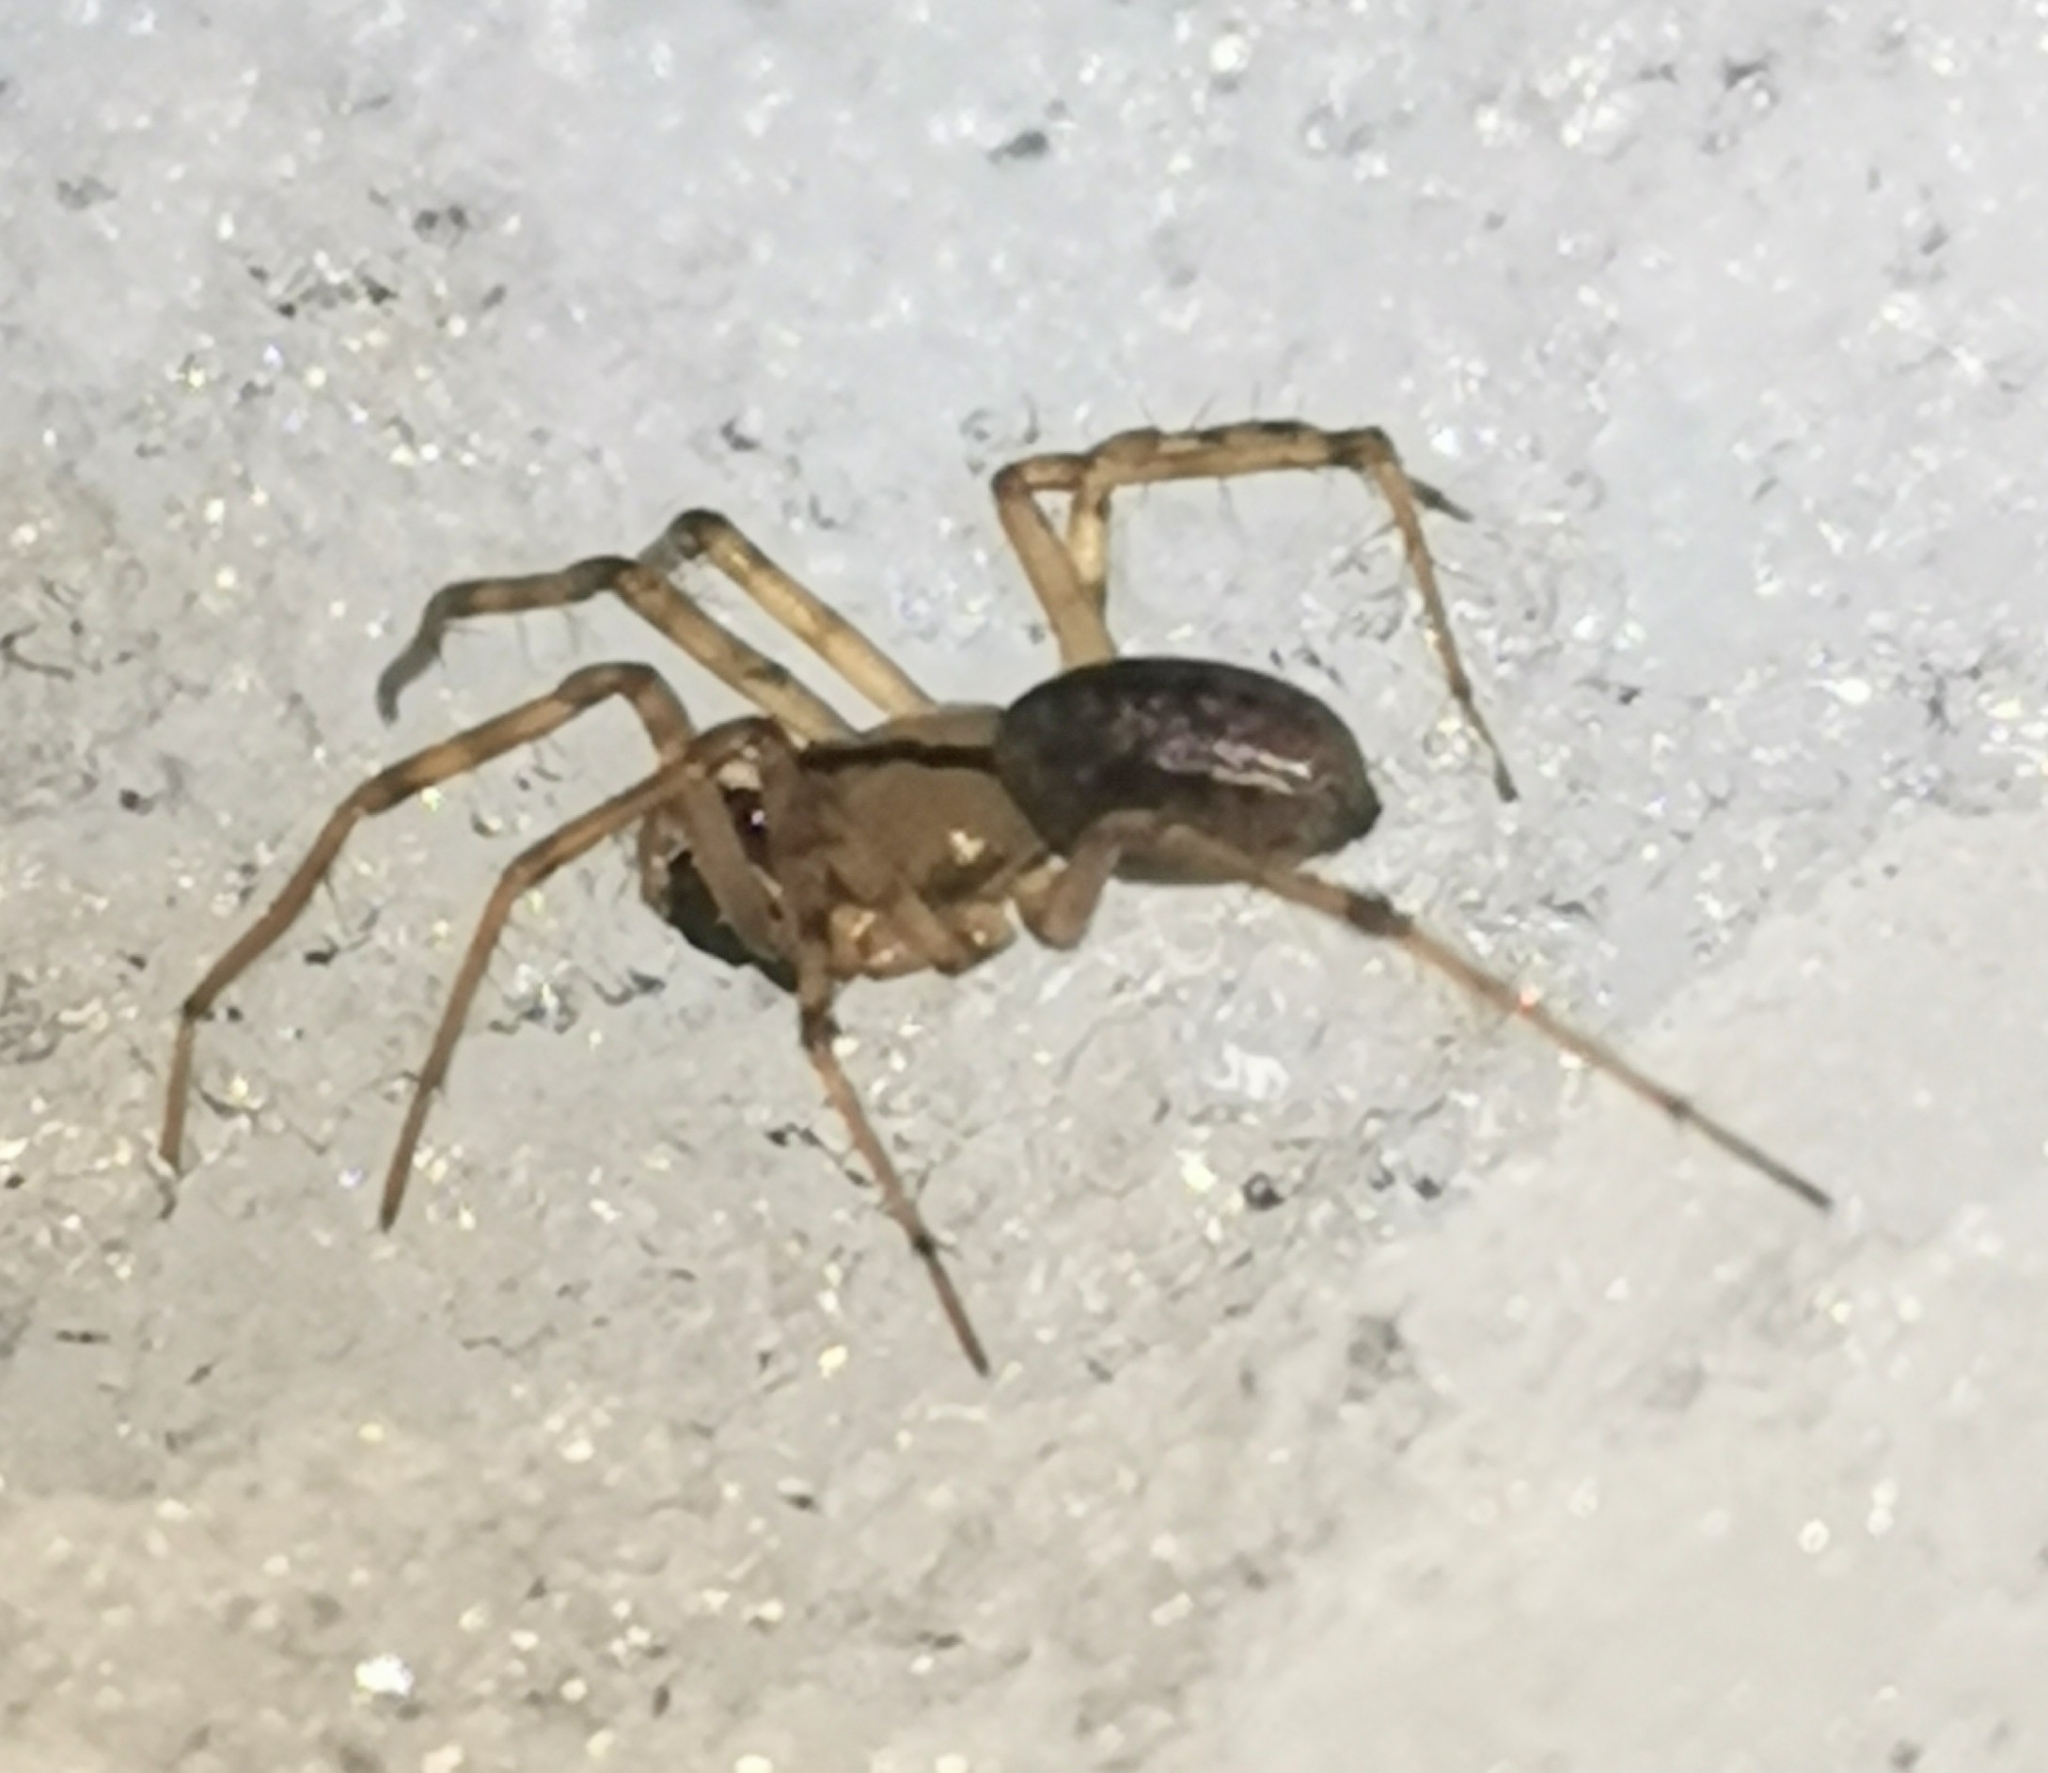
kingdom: Animalia
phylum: Arthropoda
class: Arachnida
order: Araneae
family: Linyphiidae
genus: Stemonyphantes
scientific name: Stemonyphantes lineatus
